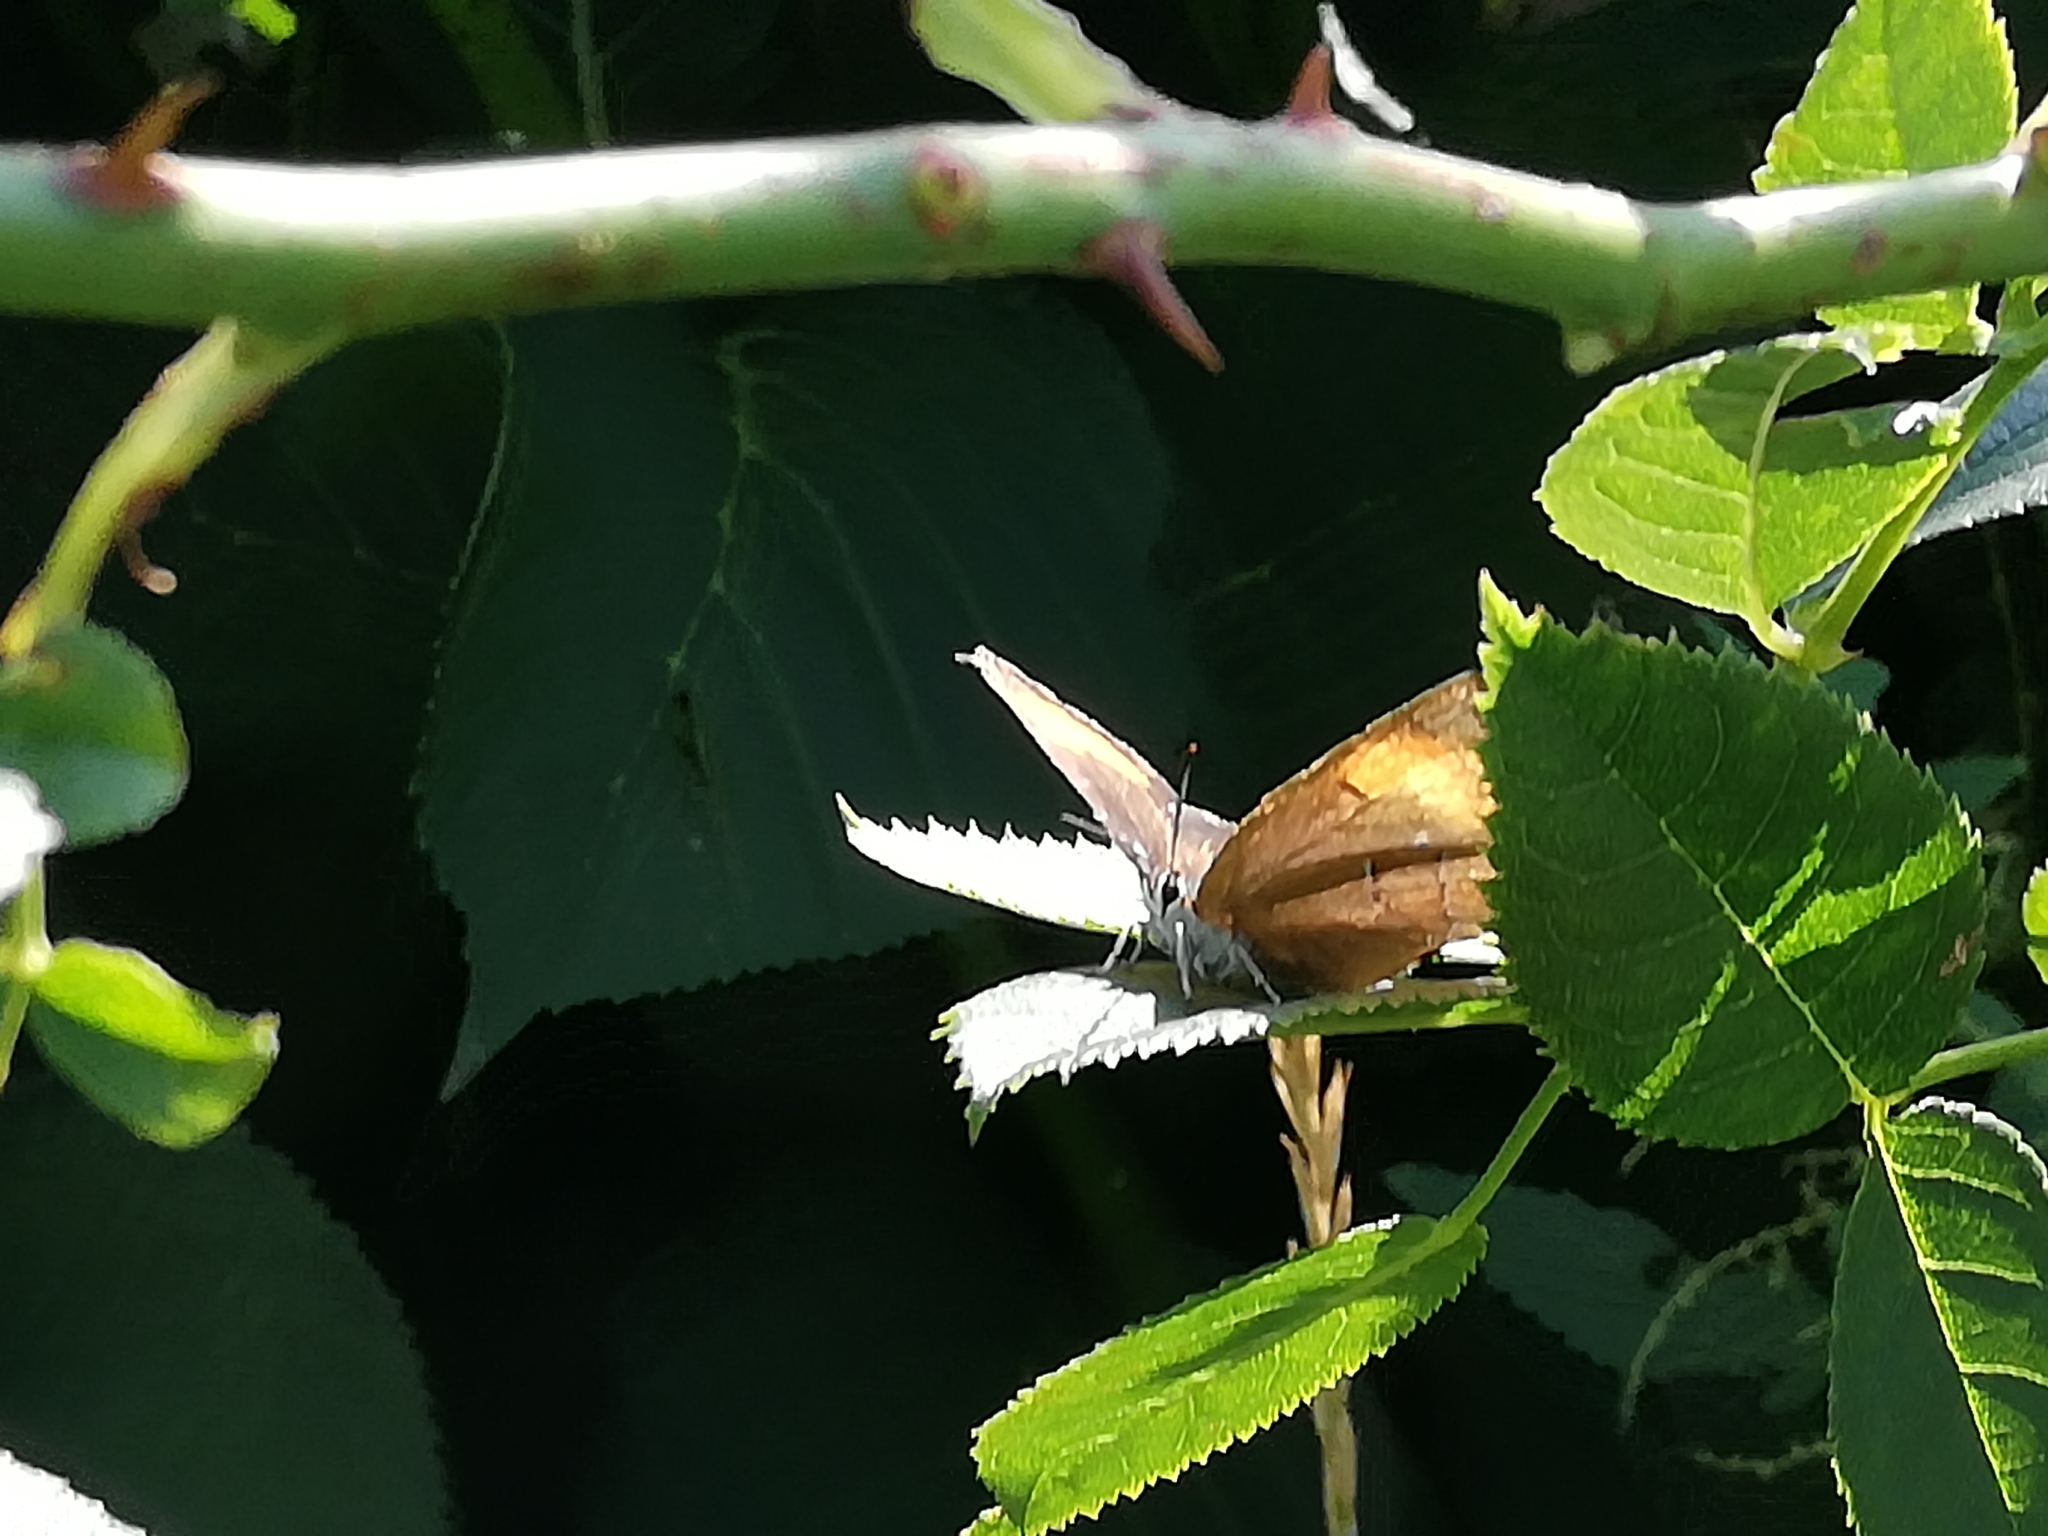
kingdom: Animalia
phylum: Arthropoda
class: Insecta
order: Lepidoptera
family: Lycaenidae
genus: Thecla
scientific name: Thecla betulae
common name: Brown hairstreak
